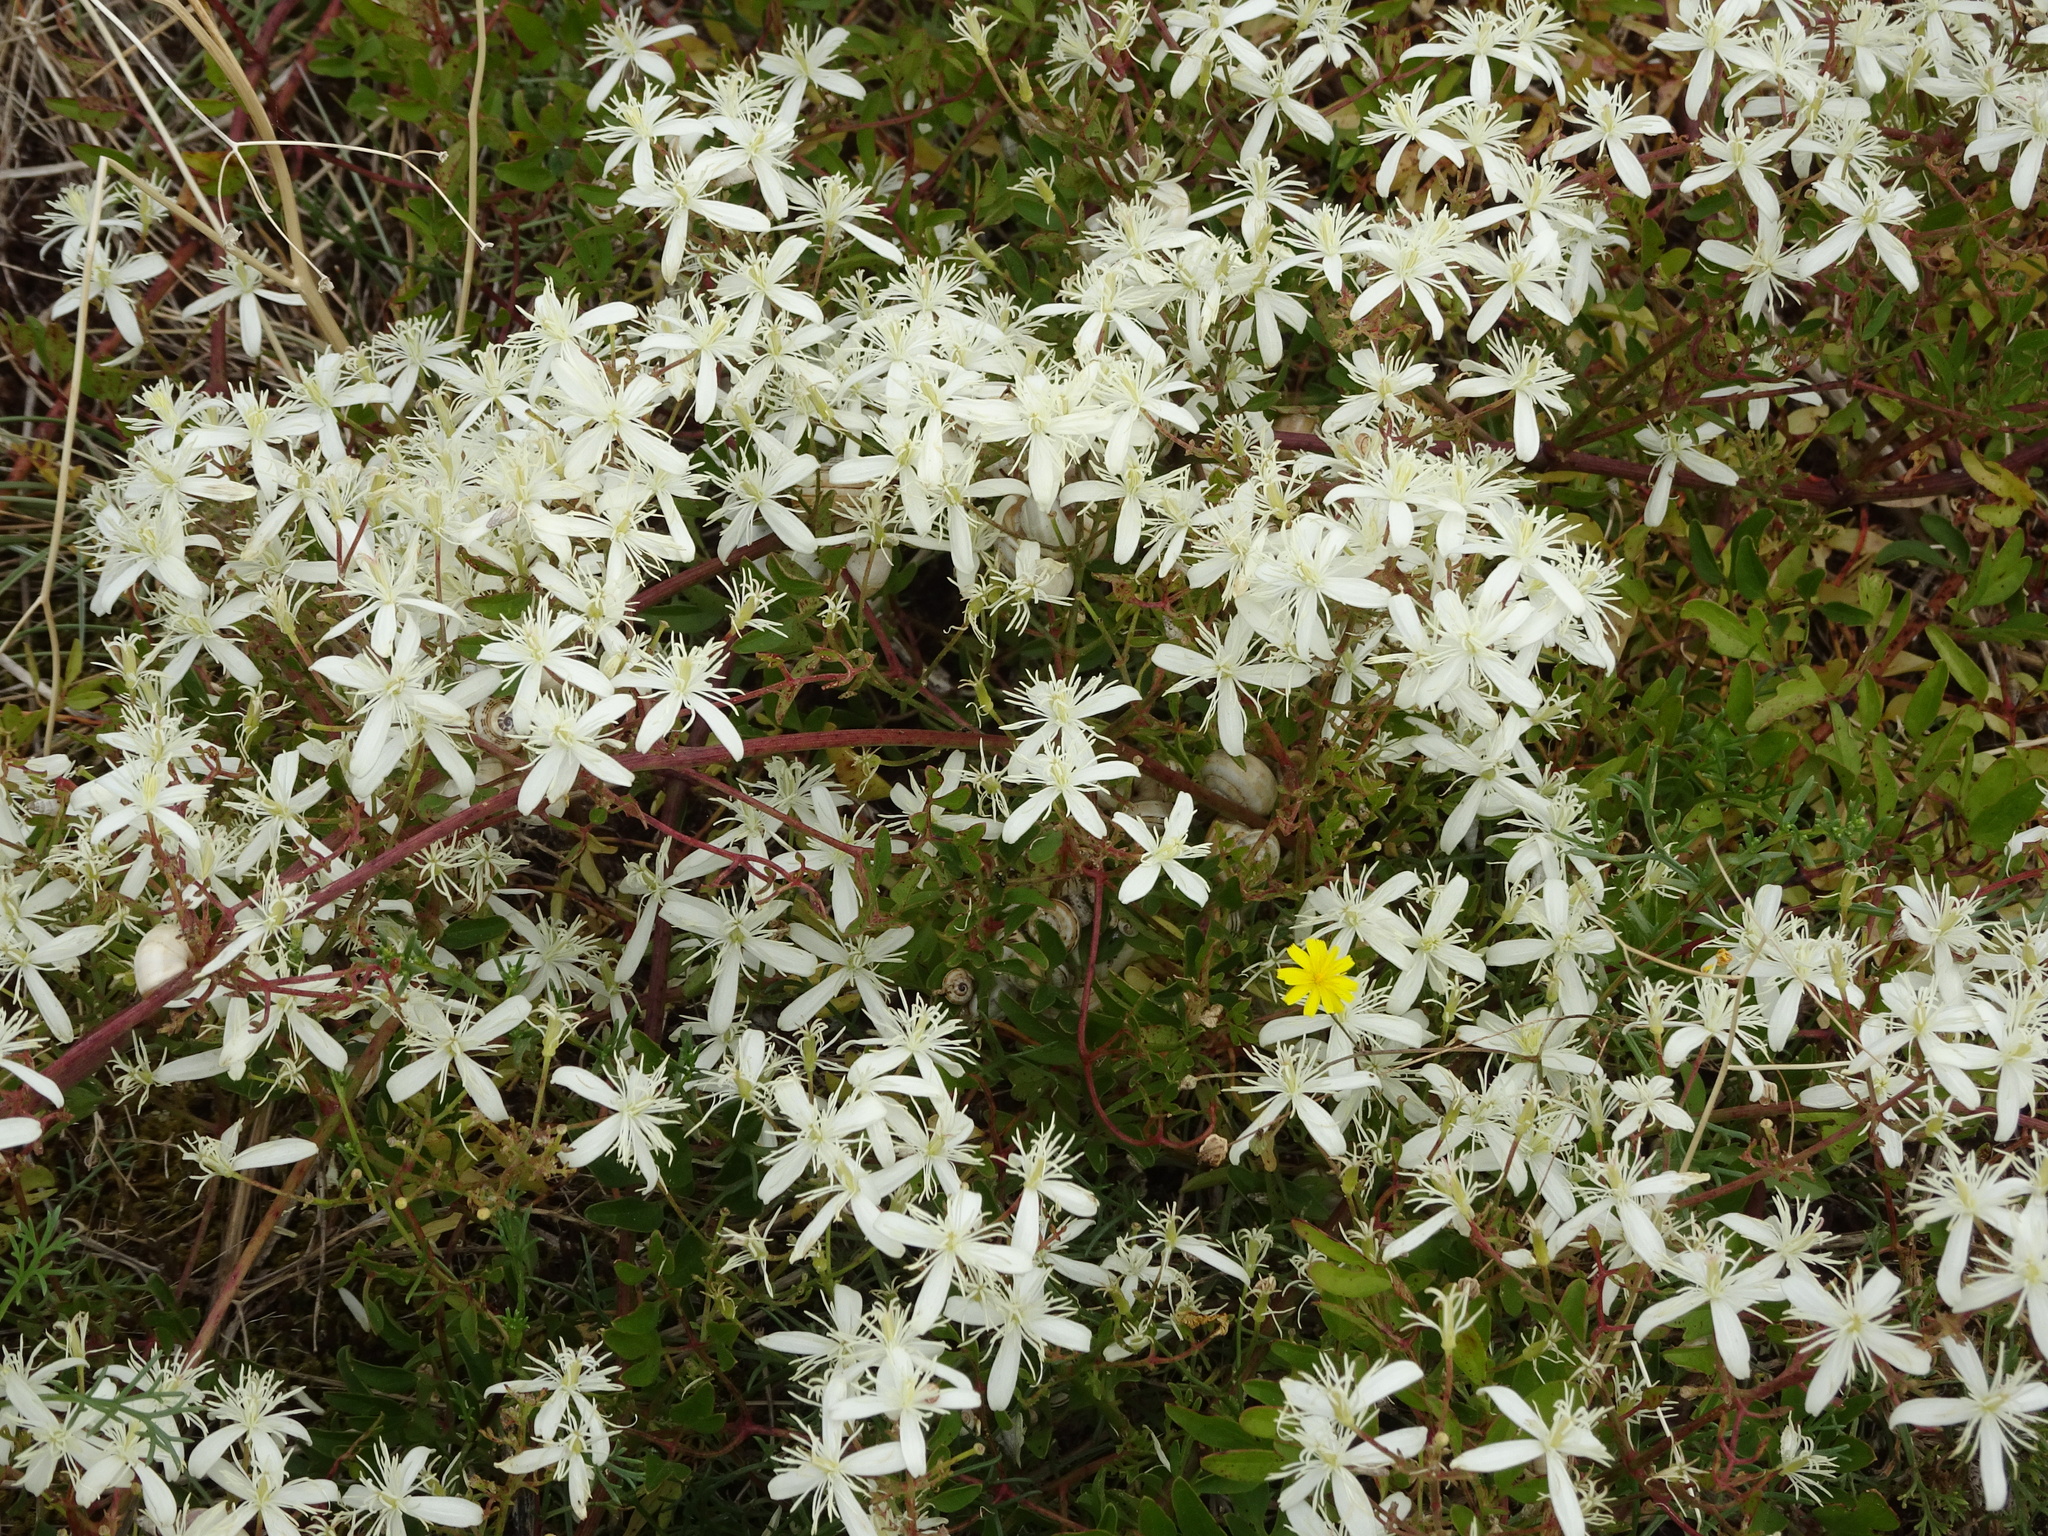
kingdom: Plantae
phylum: Tracheophyta
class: Magnoliopsida
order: Ranunculales
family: Ranunculaceae
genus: Clematis
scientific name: Clematis flammula
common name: Virgin's-bower
